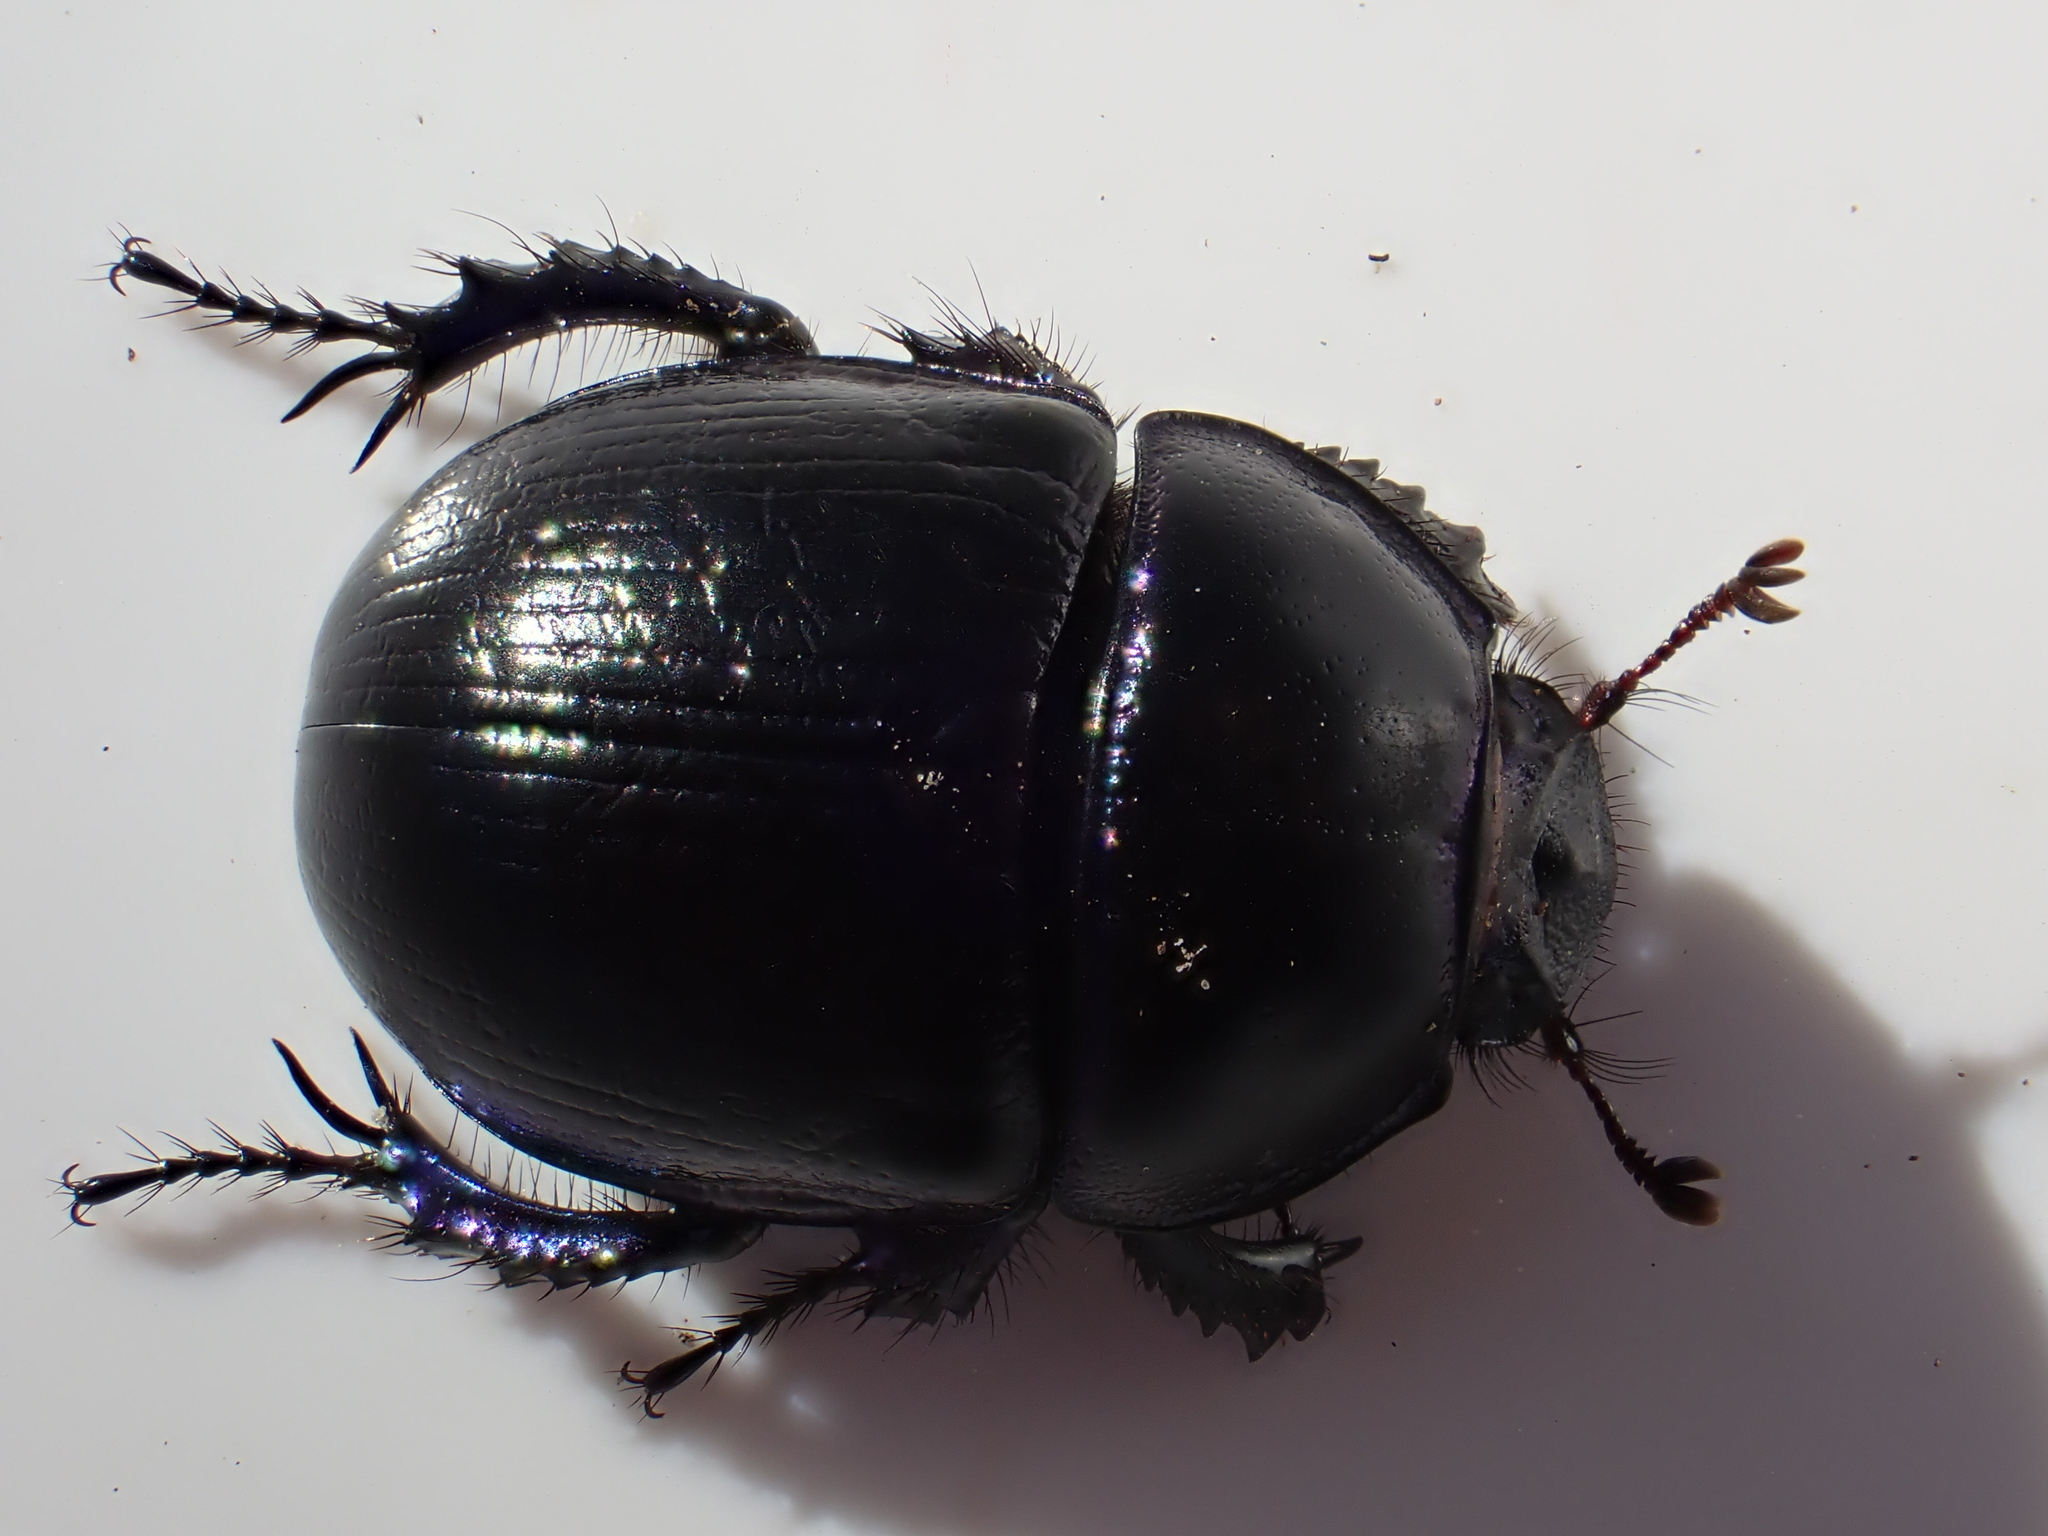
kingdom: Animalia
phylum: Arthropoda
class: Insecta
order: Coleoptera
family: Geotrupidae
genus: Anoplotrupes
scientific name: Anoplotrupes stercorosus
